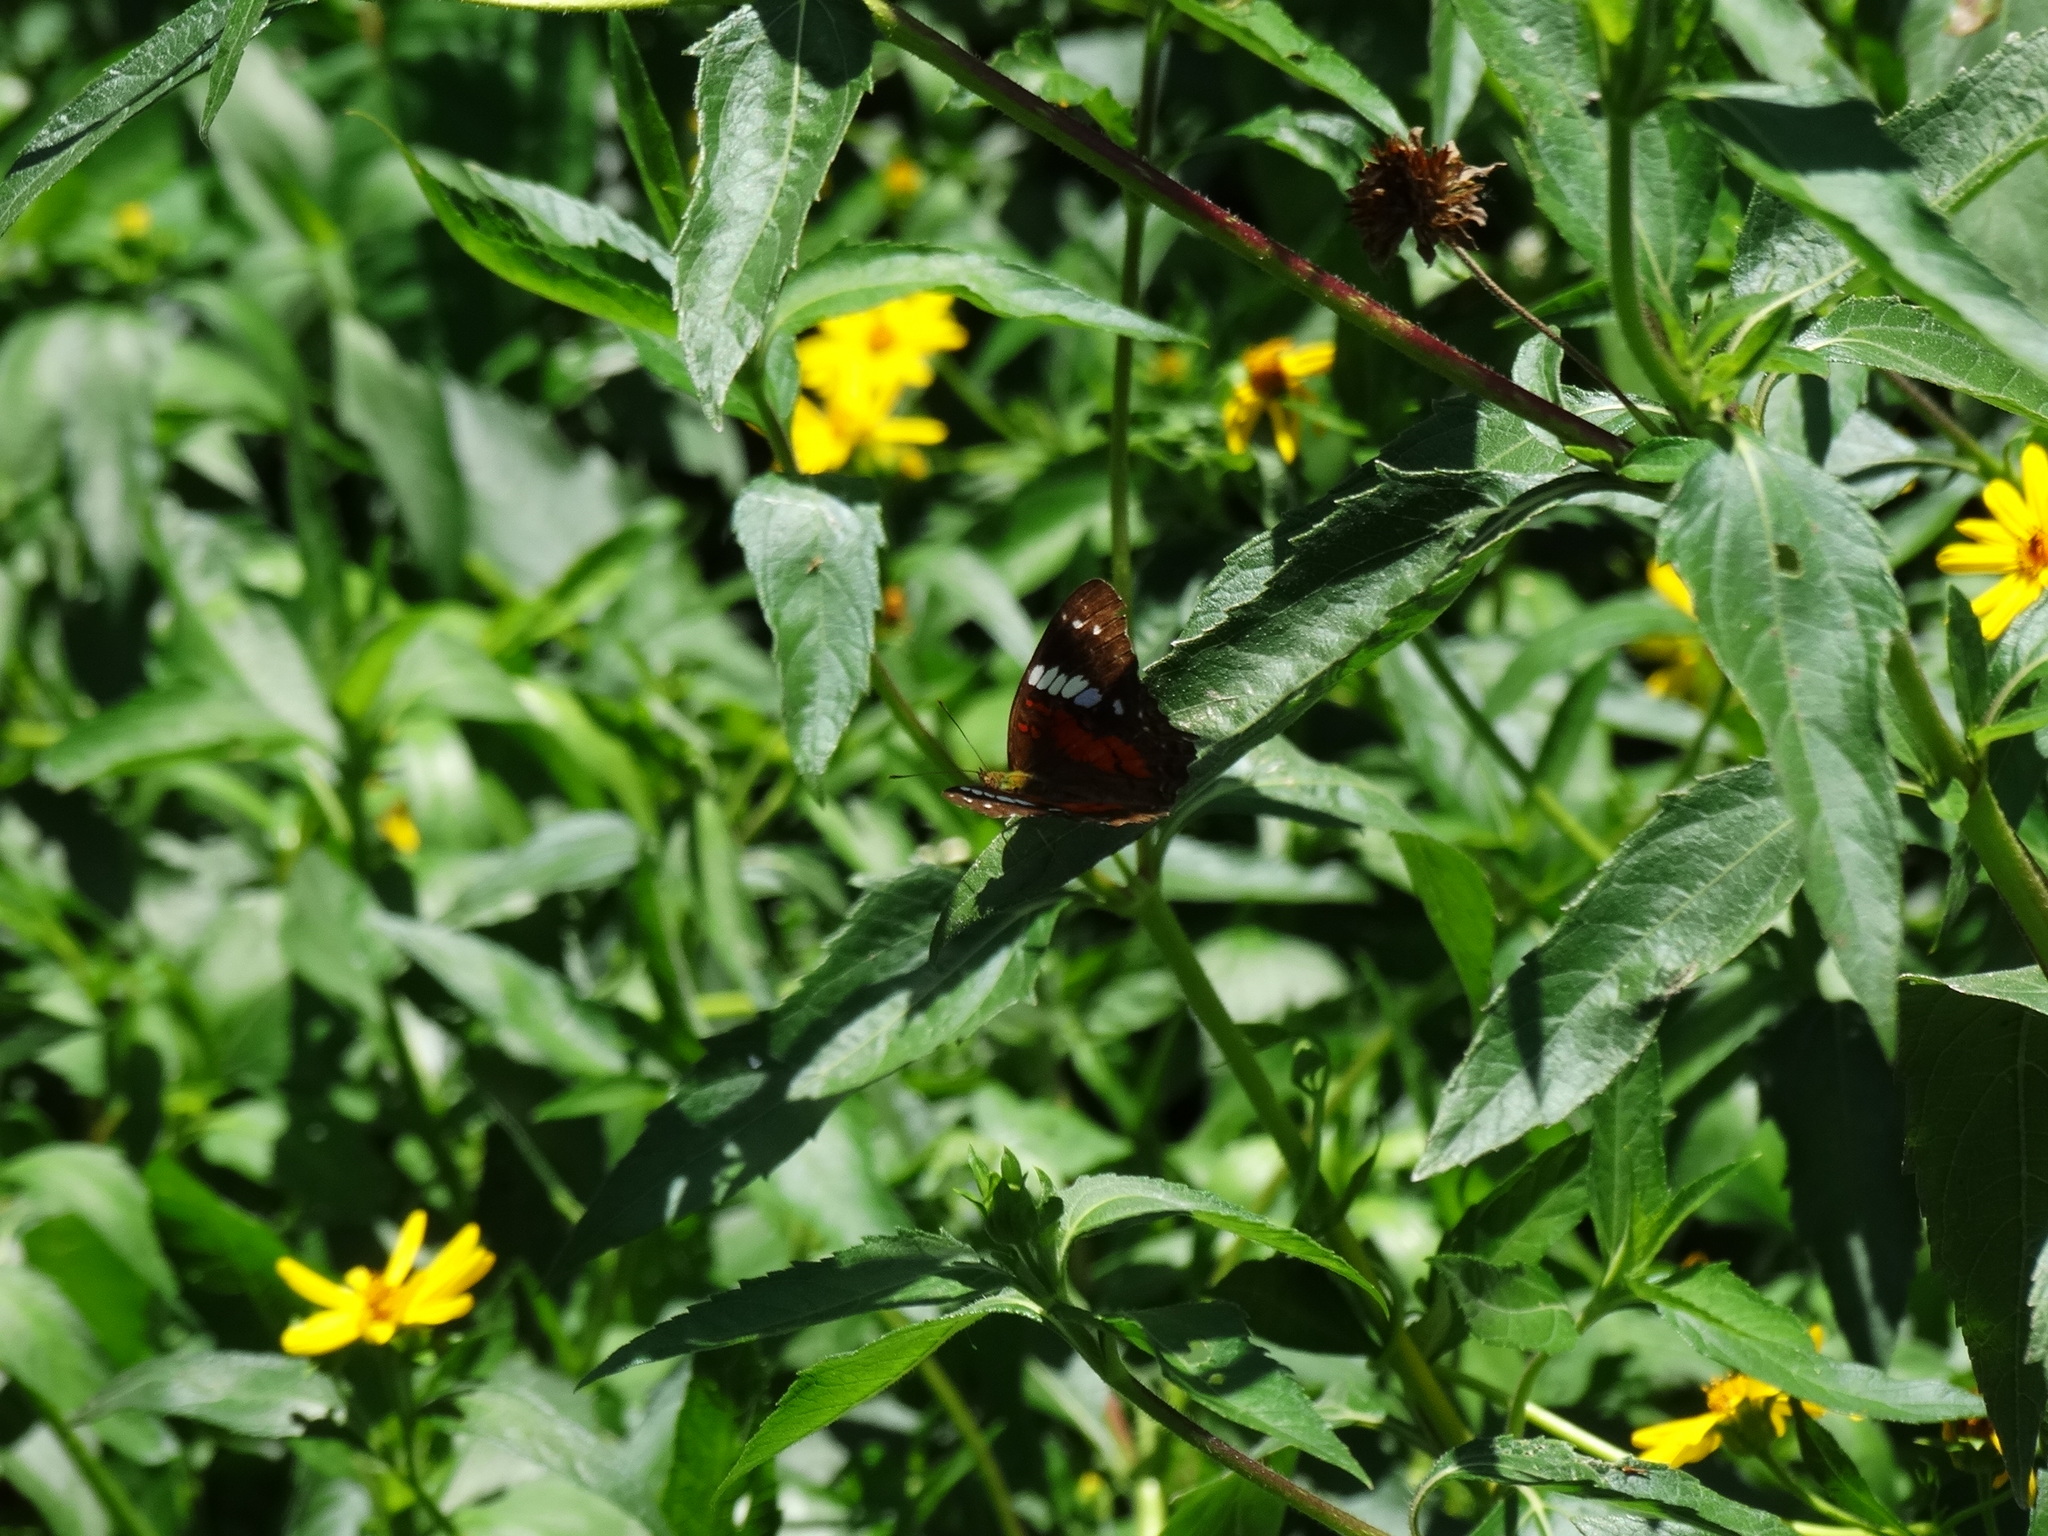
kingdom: Animalia
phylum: Arthropoda
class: Insecta
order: Lepidoptera
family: Nymphalidae
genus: Anartia
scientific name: Anartia amathea
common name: Red peacock
